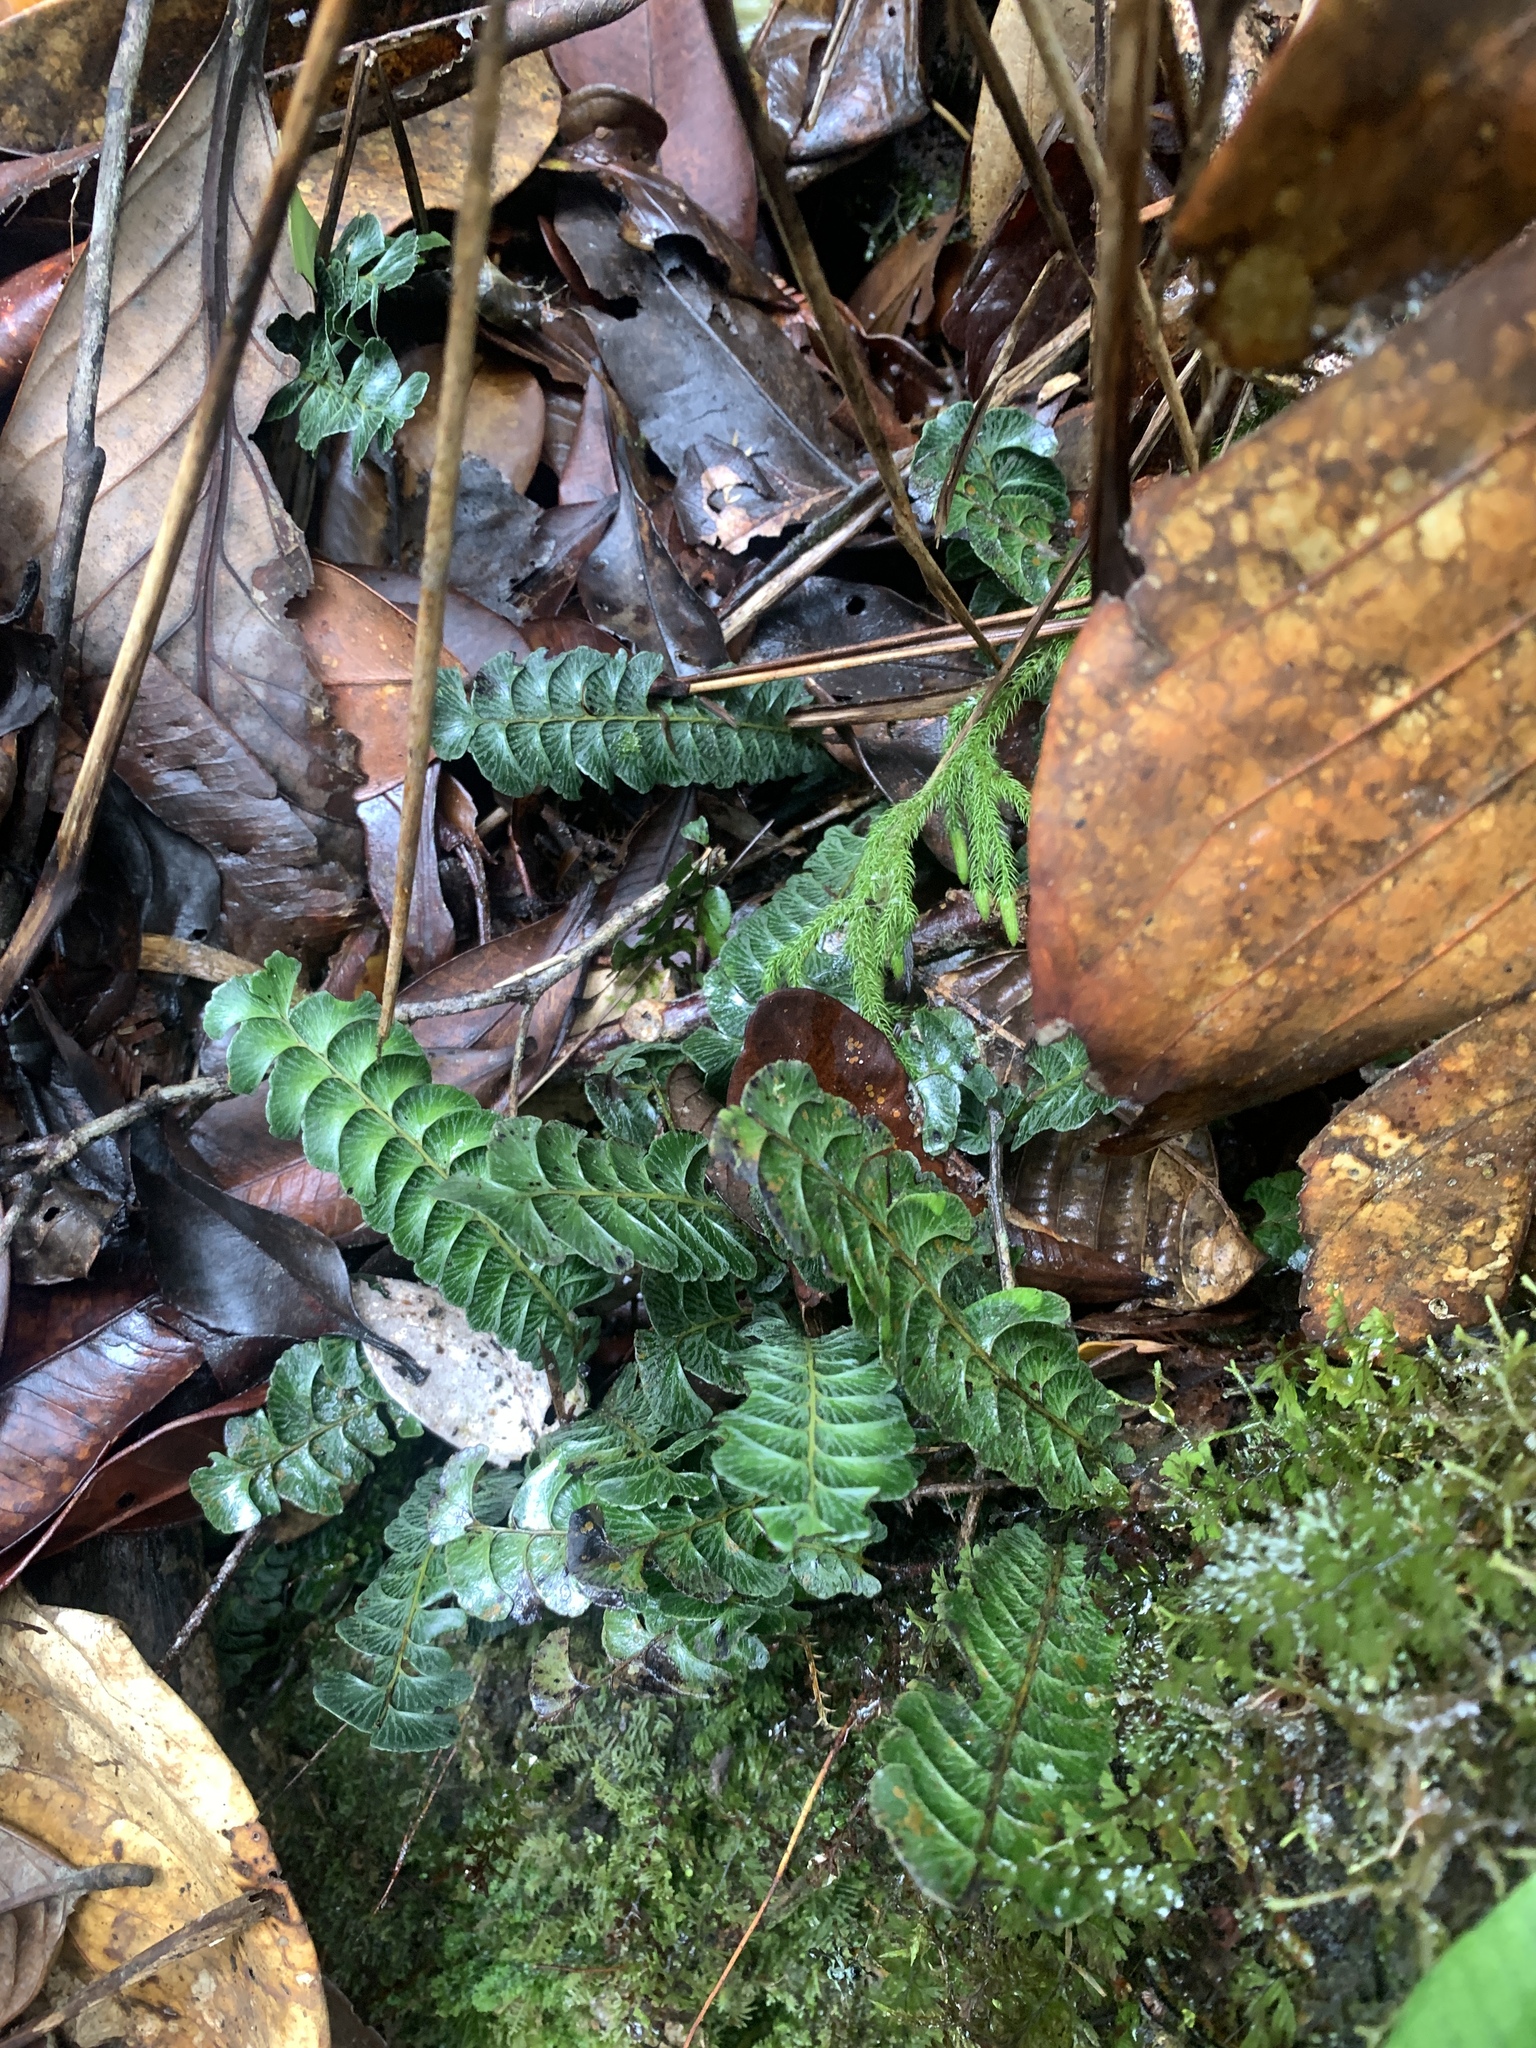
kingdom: Plantae
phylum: Tracheophyta
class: Polypodiopsida
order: Polypodiales
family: Lindsaeaceae
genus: Lindsaea
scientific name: Lindsaea oblanceolata
